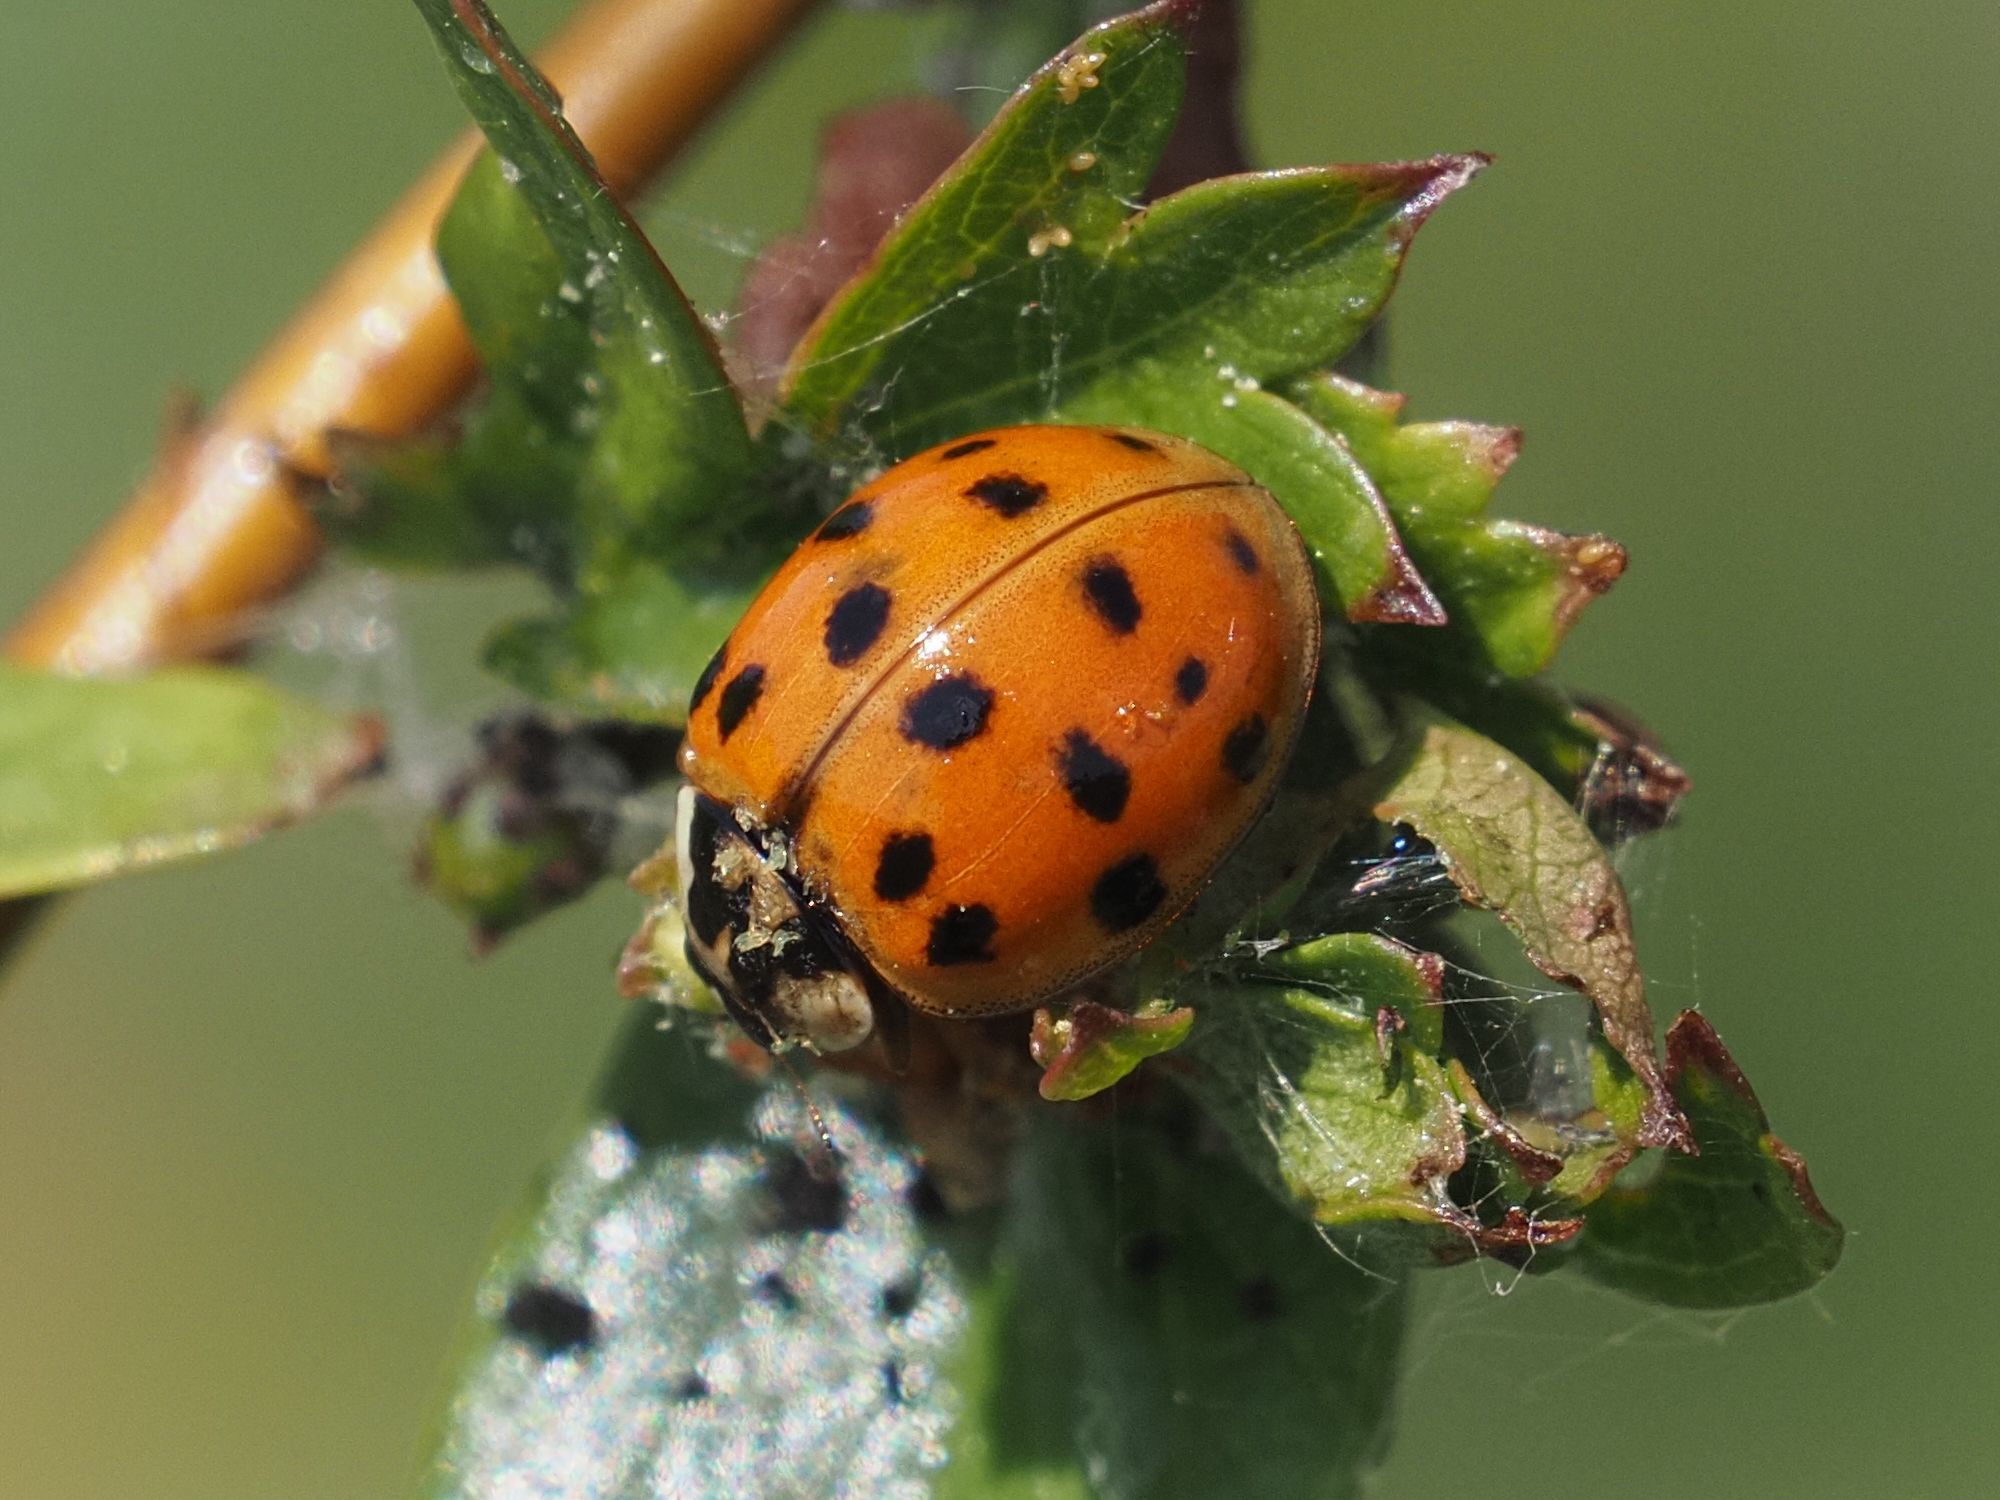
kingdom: Animalia
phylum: Arthropoda
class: Insecta
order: Coleoptera
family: Coccinellidae
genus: Harmonia
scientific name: Harmonia axyridis
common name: Harlequin ladybird
